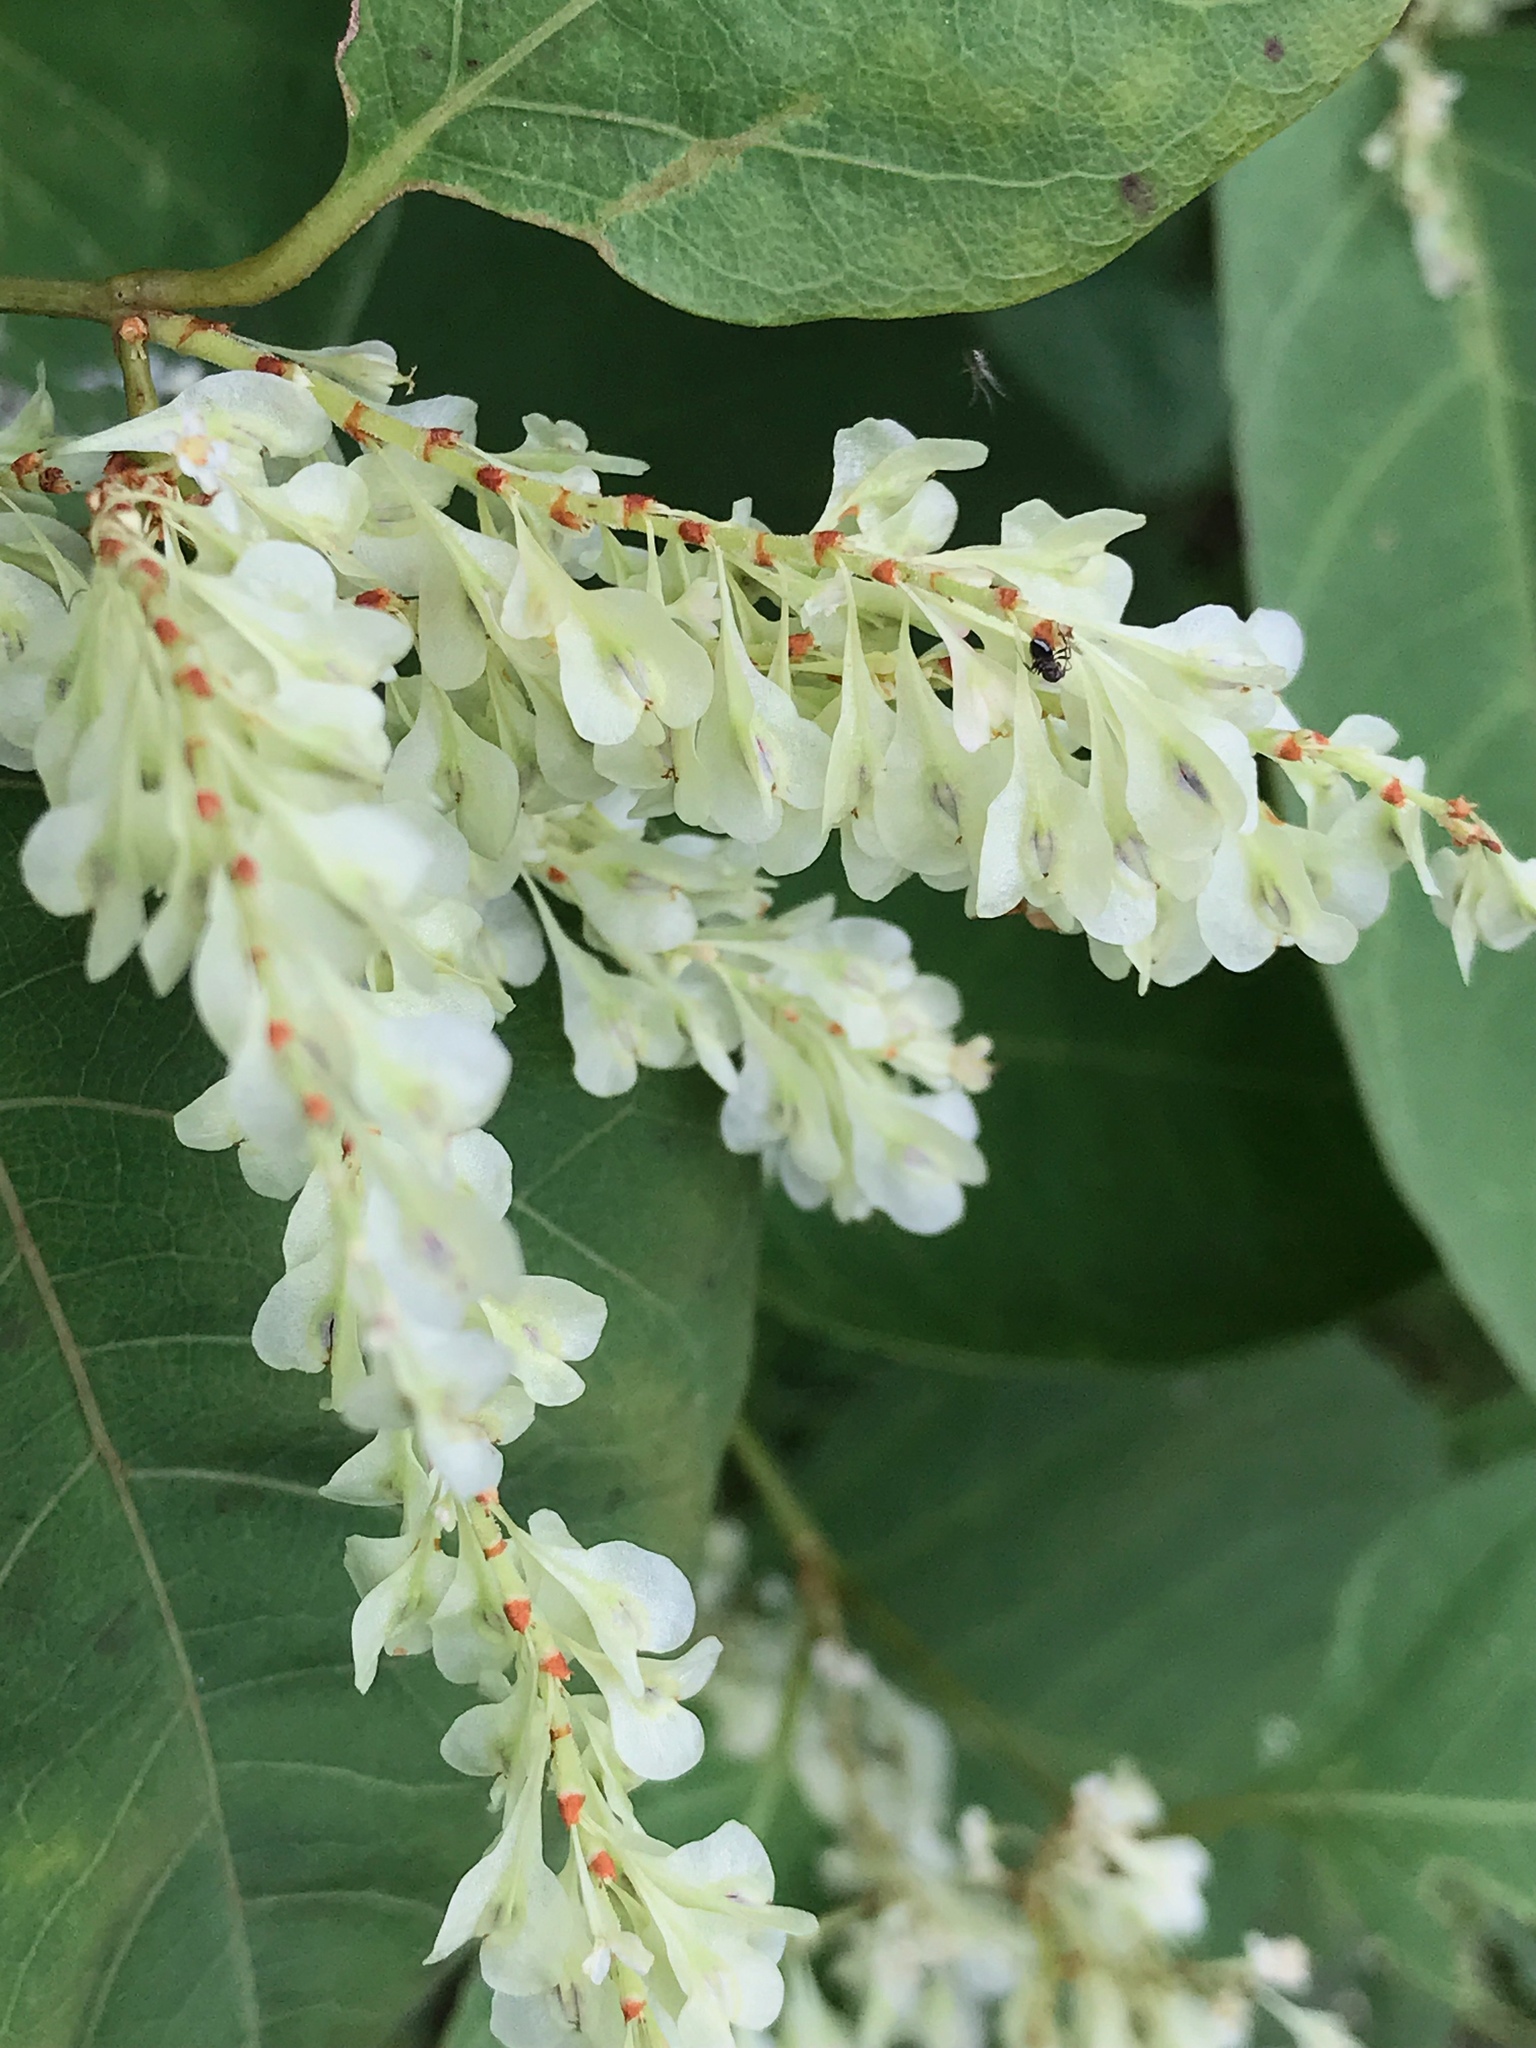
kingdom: Plantae
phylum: Tracheophyta
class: Magnoliopsida
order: Caryophyllales
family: Polygonaceae
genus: Reynoutria
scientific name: Reynoutria japonica
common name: Japanese knotweed
